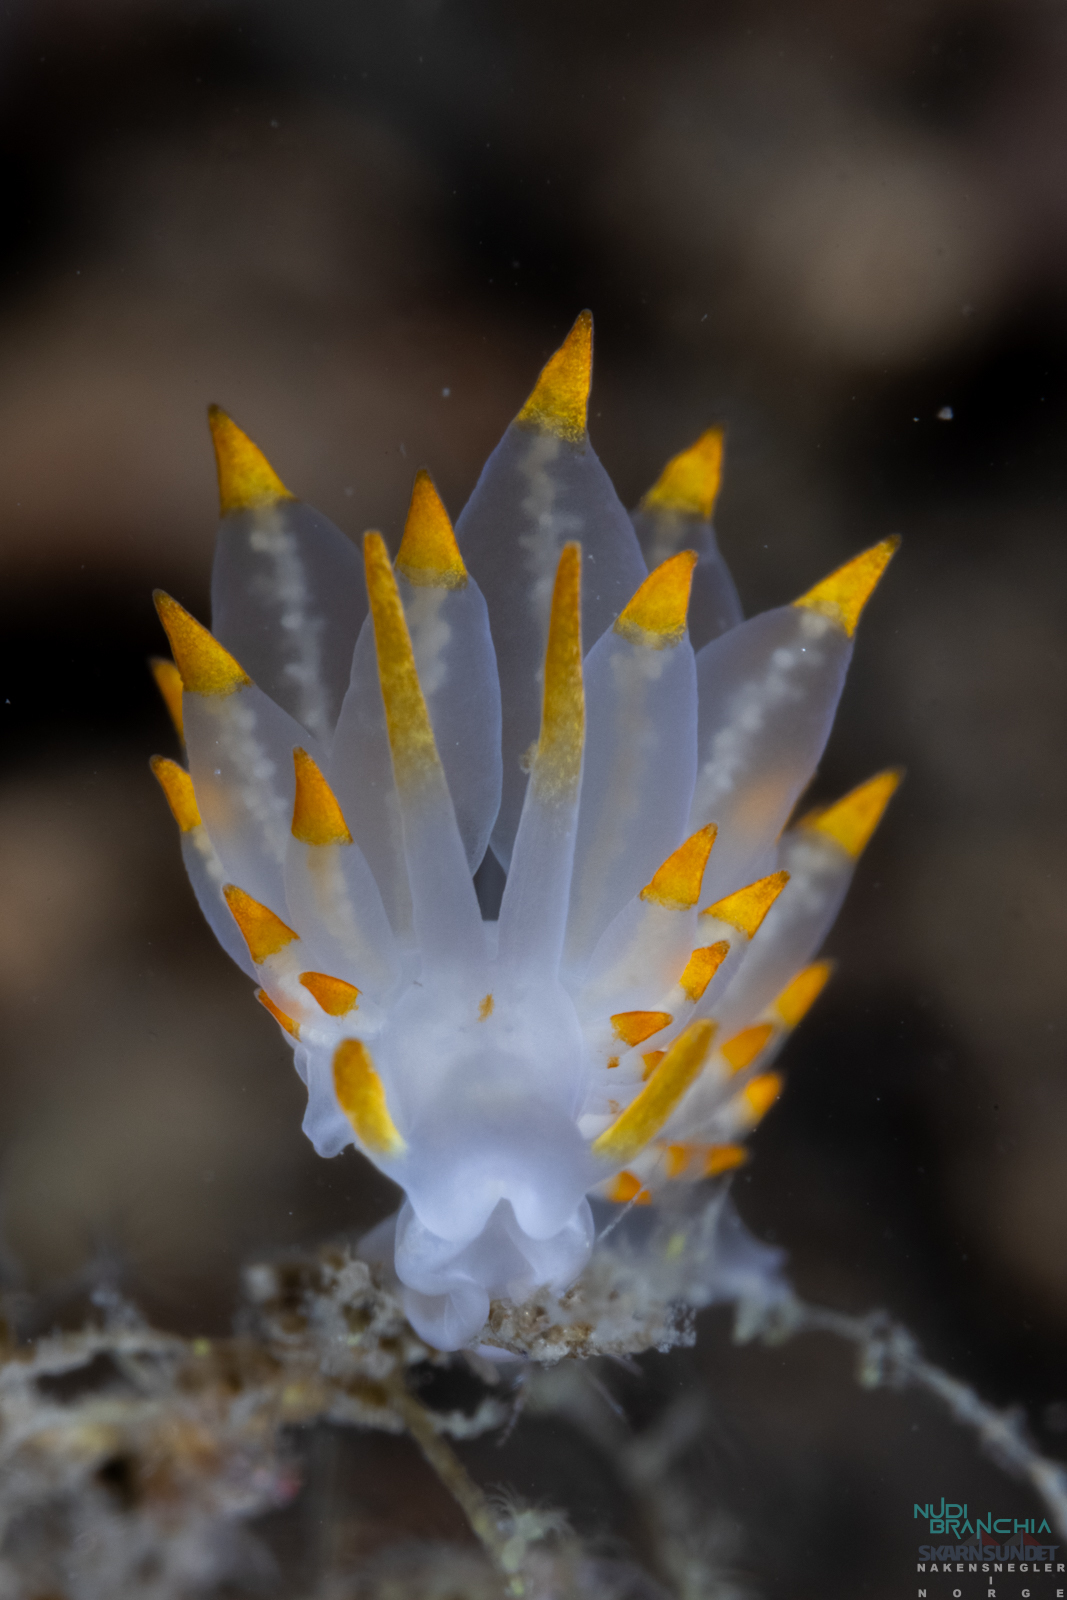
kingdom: Animalia
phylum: Mollusca
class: Gastropoda
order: Nudibranchia
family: Eubranchidae
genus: Amphorina
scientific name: Amphorina farrani
